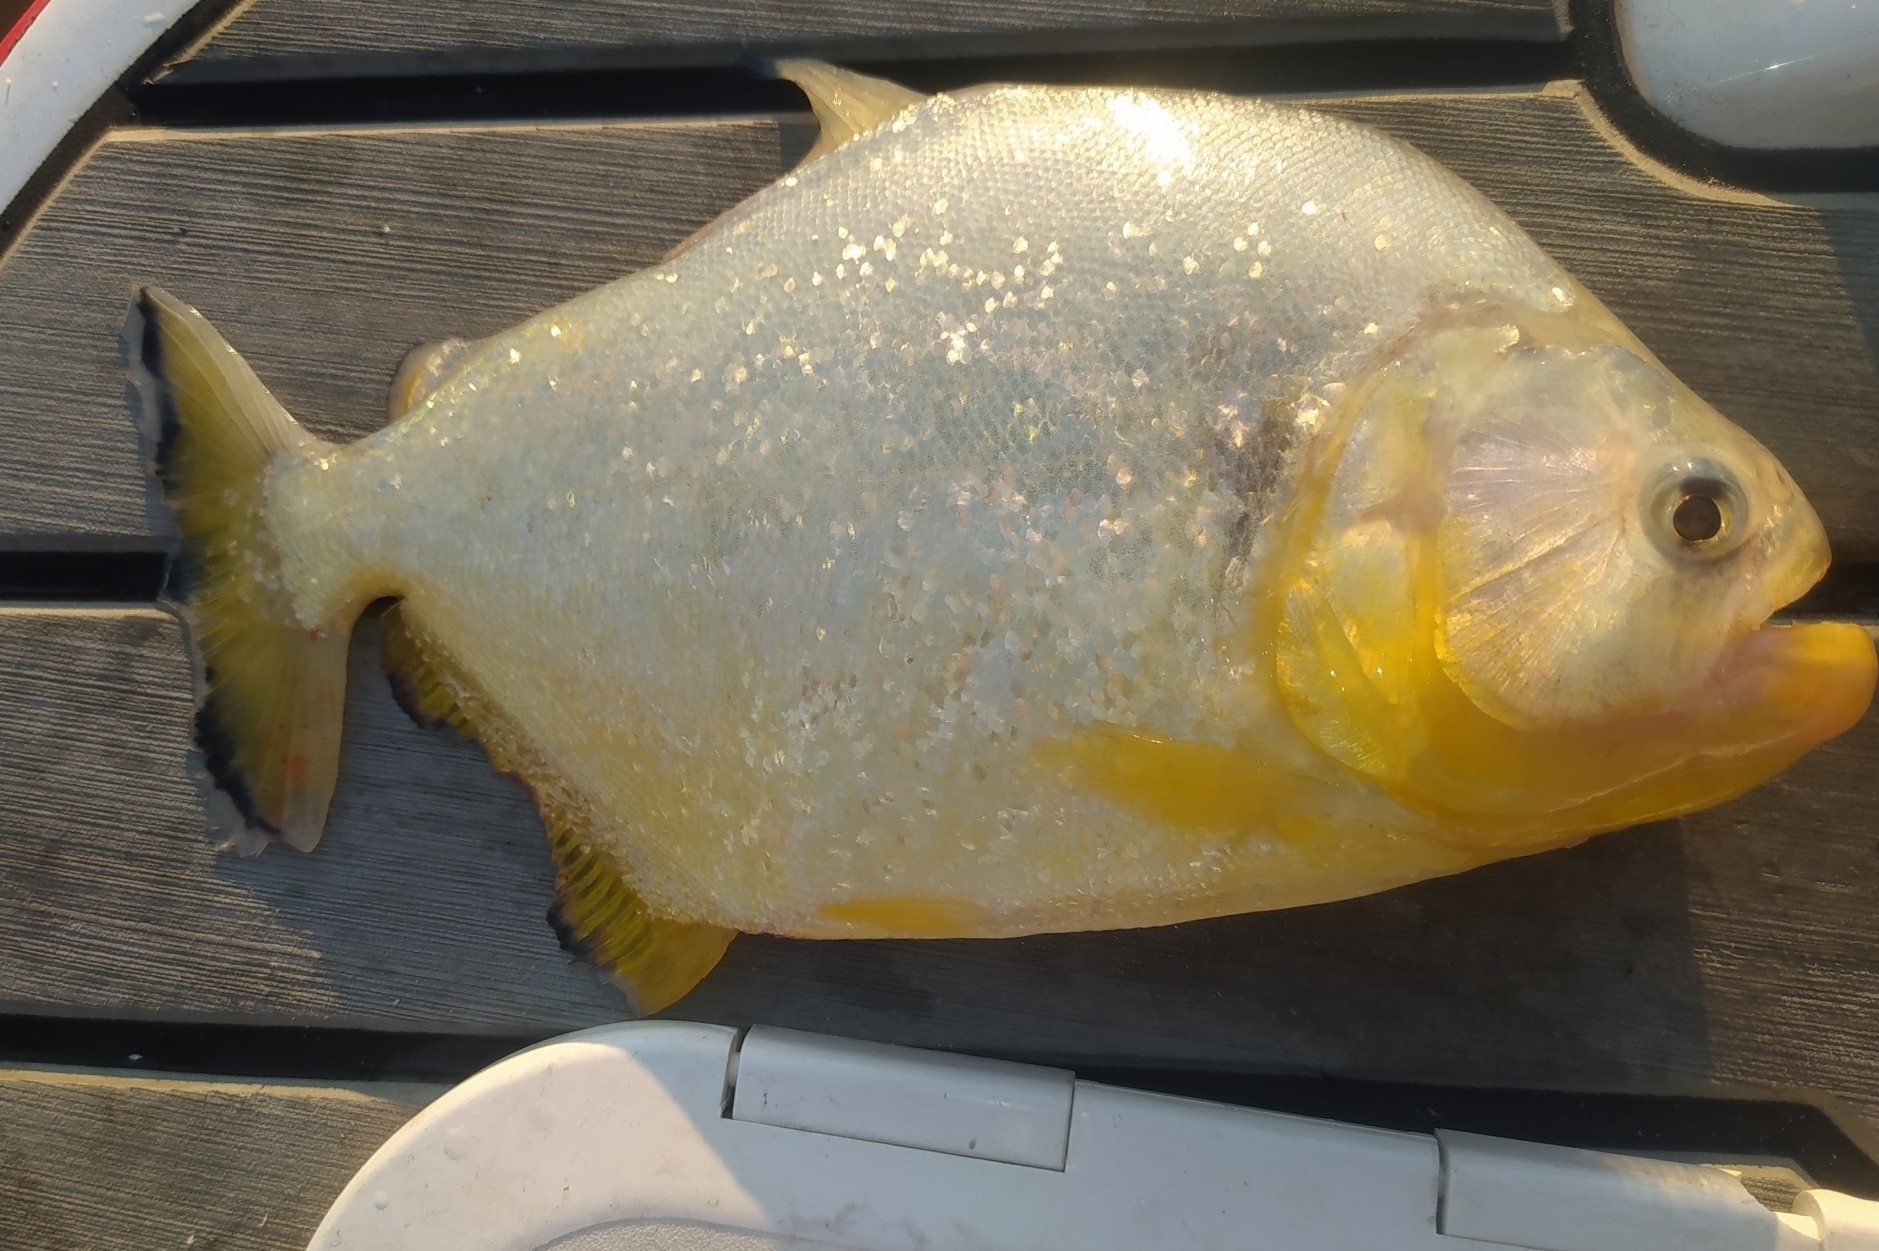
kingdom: Animalia
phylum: Chordata
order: Characiformes
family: Serrasalmidae
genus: Serrasalmus
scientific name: Serrasalmus maculatus
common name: Speckled piranha
